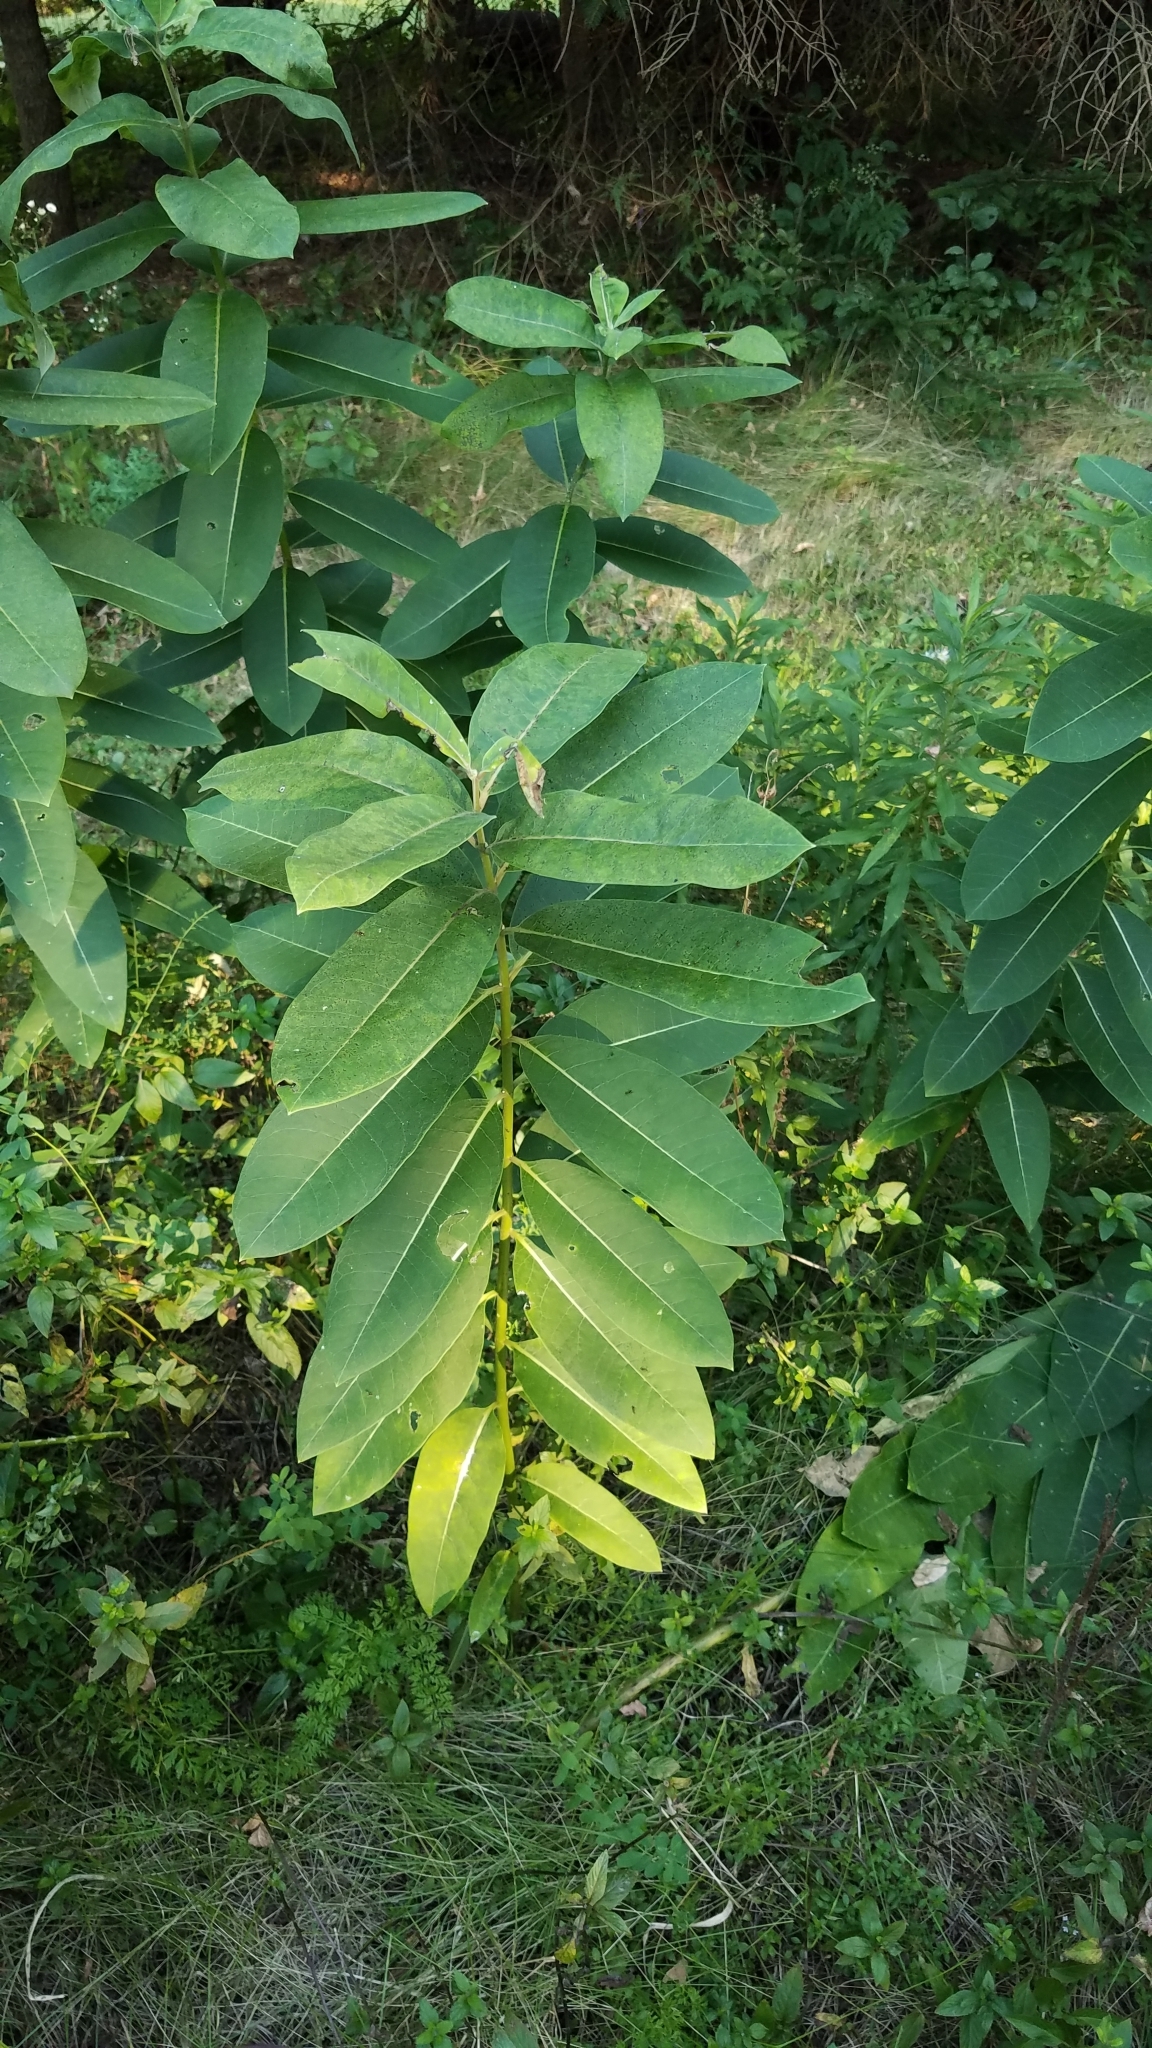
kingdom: Plantae
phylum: Tracheophyta
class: Magnoliopsida
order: Gentianales
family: Apocynaceae
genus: Asclepias
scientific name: Asclepias syriaca
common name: Common milkweed
